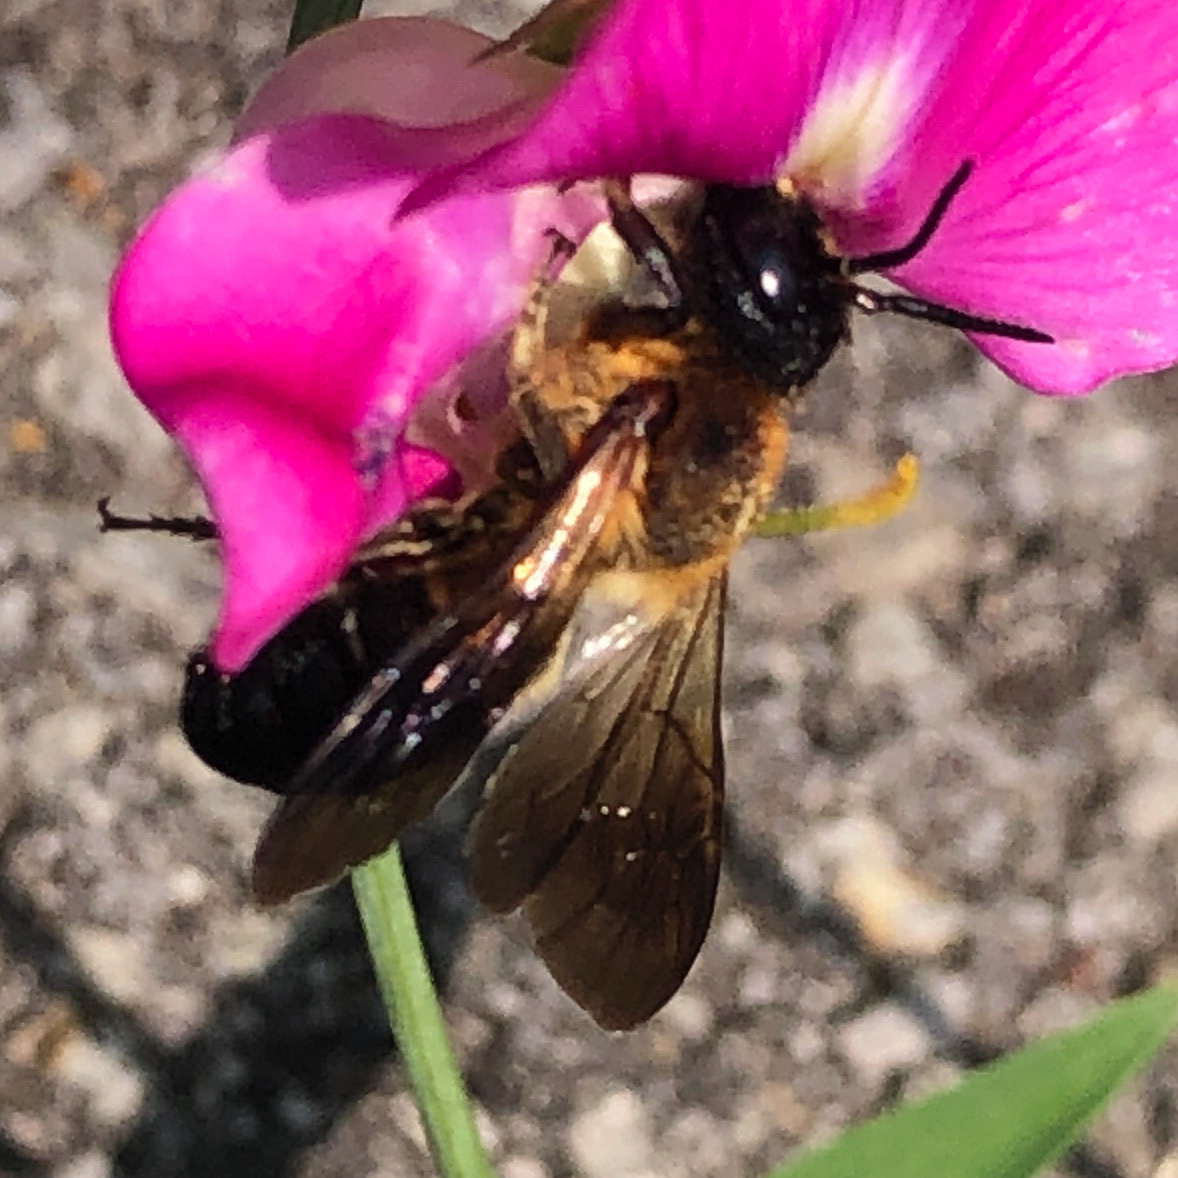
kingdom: Animalia
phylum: Arthropoda
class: Insecta
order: Hymenoptera
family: Megachilidae
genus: Megachile
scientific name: Megachile sculpturalis
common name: Sculptured resin bee
